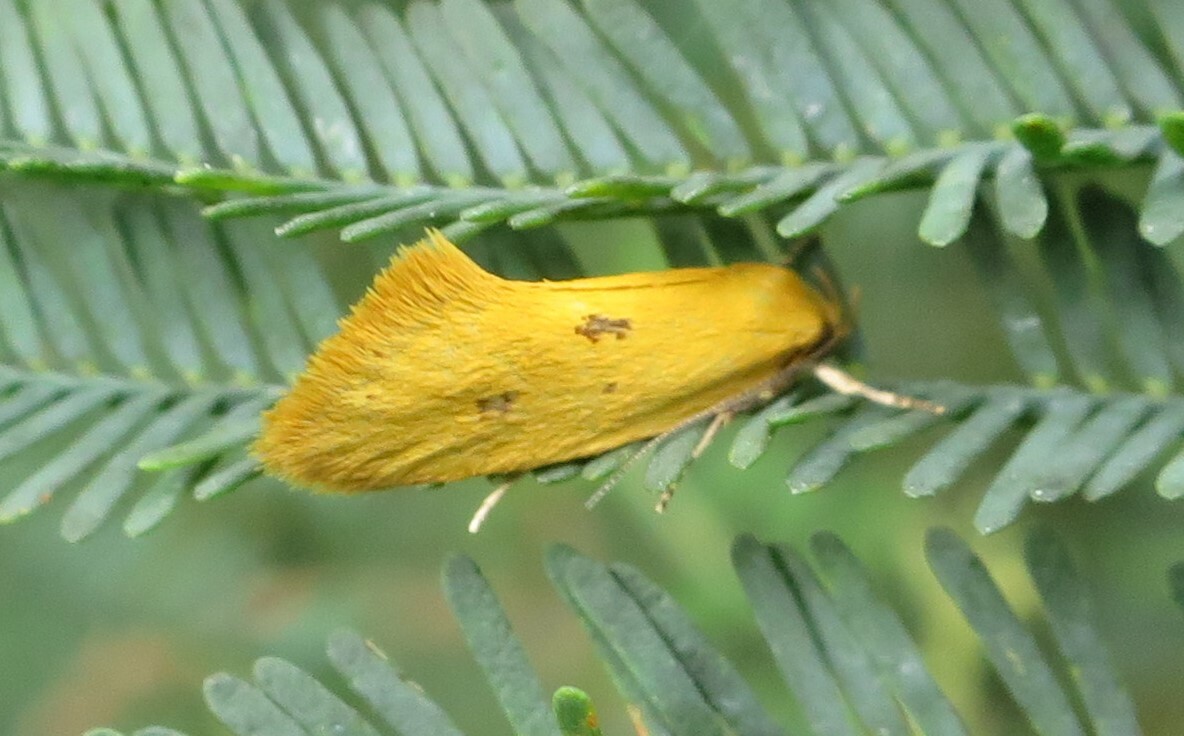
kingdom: Animalia
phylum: Arthropoda
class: Insecta
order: Lepidoptera
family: Oecophoridae
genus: Tingena
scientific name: Tingena grata
